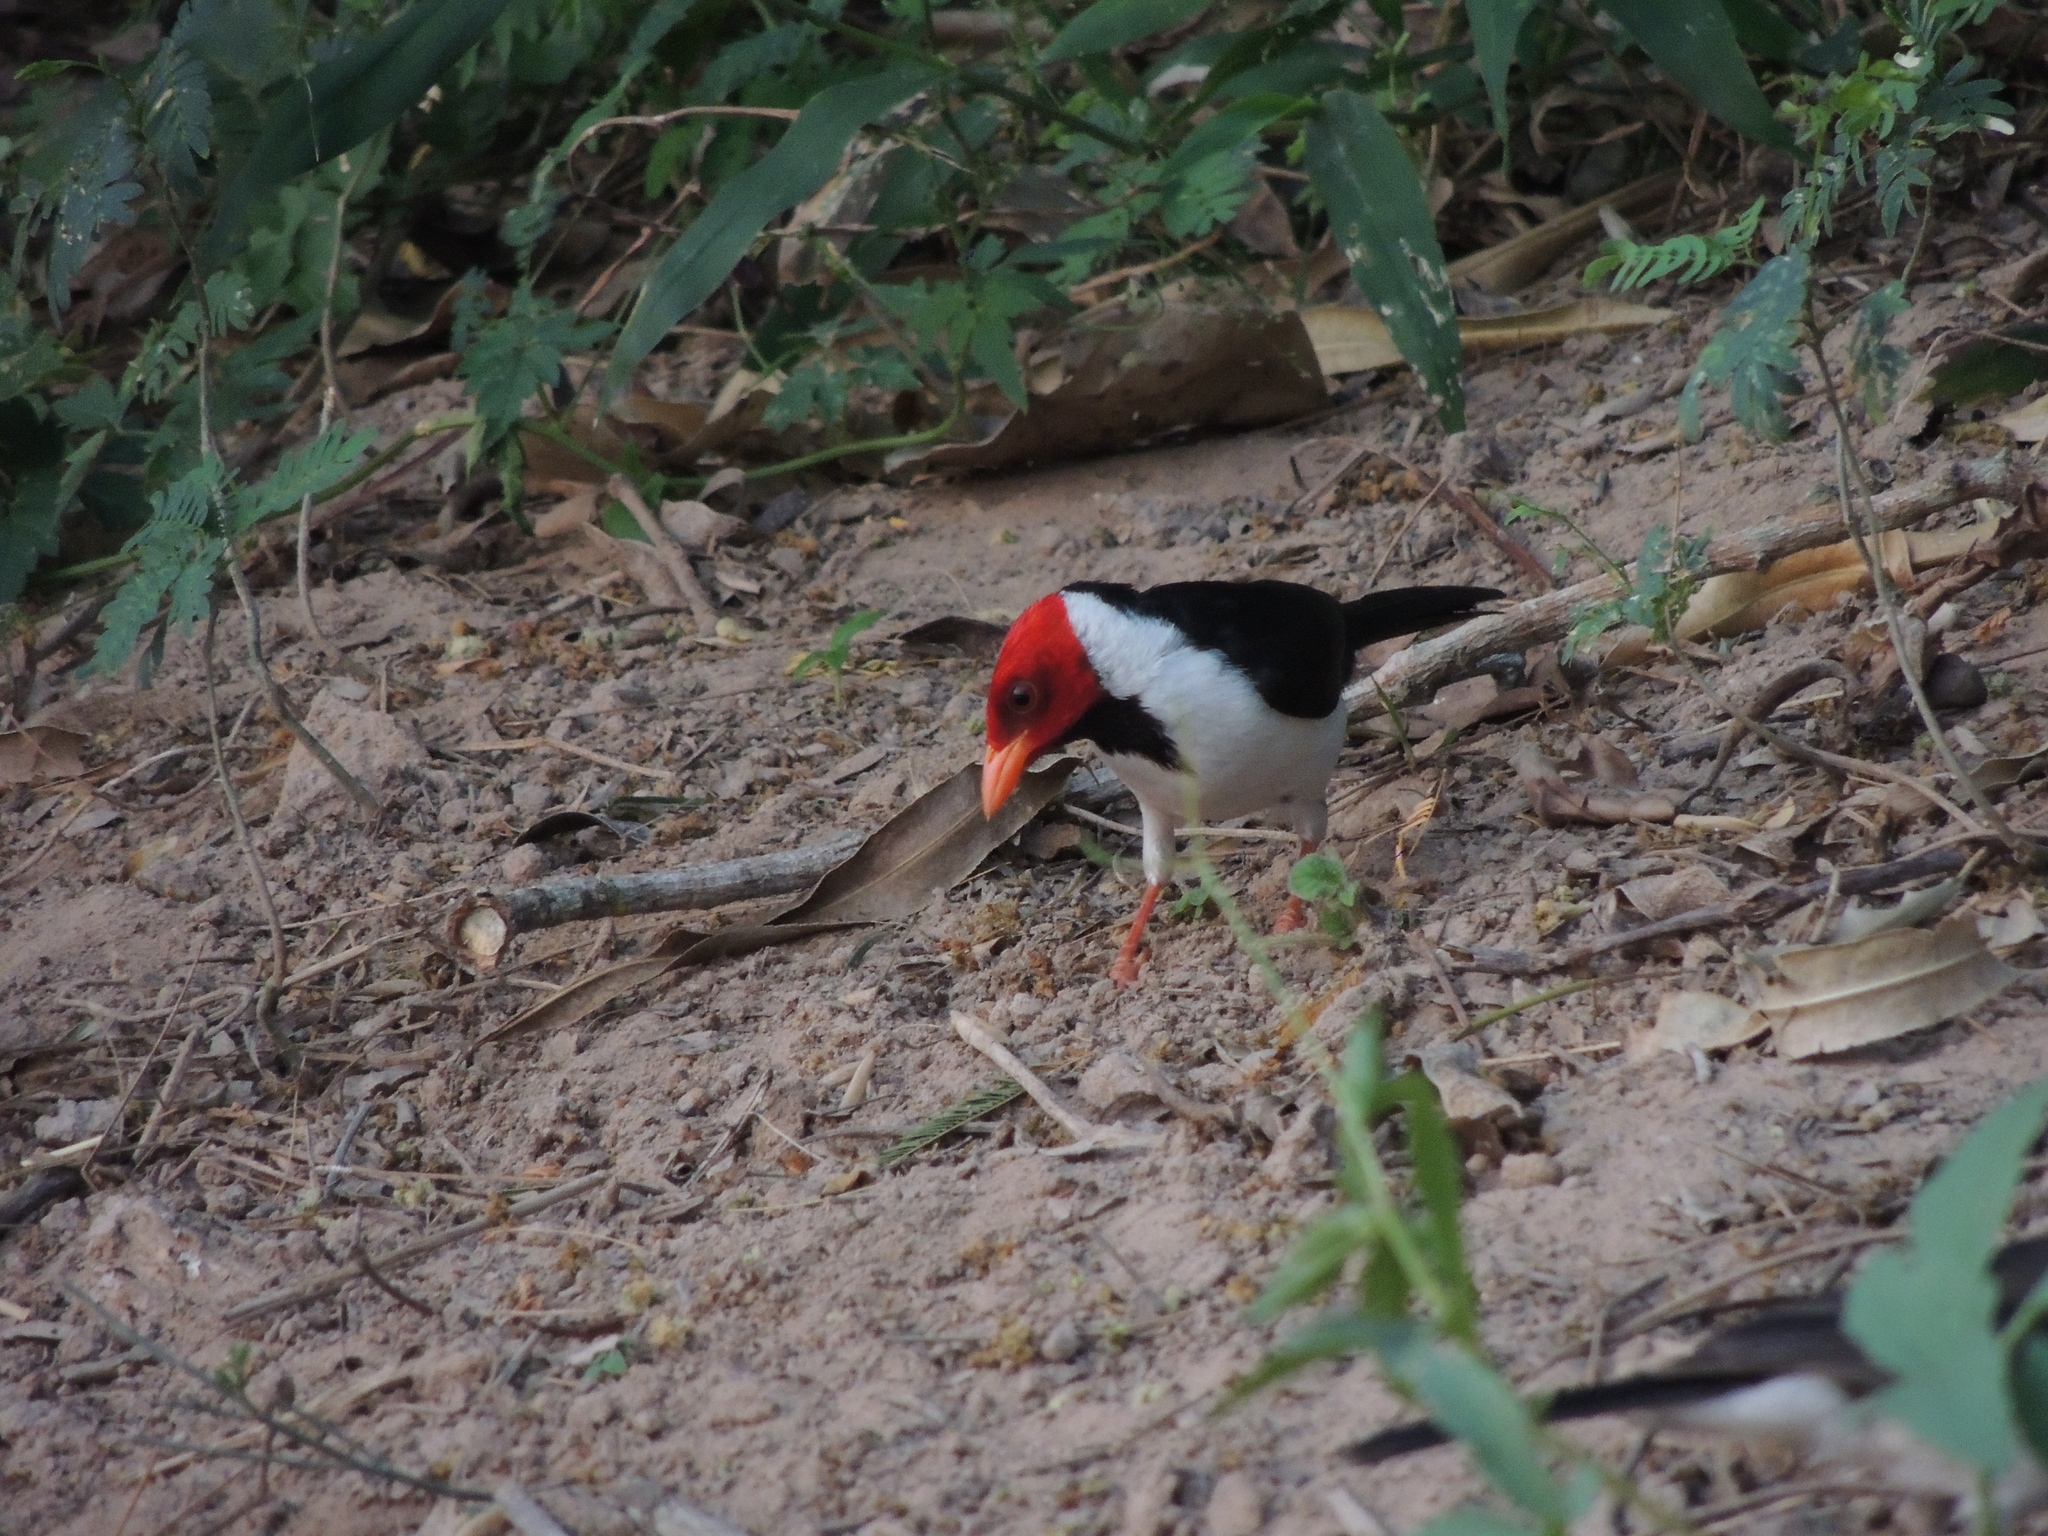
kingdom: Animalia
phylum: Chordata
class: Aves
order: Passeriformes
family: Thraupidae
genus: Paroaria
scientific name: Paroaria capitata
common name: Yellow-billed cardinal
